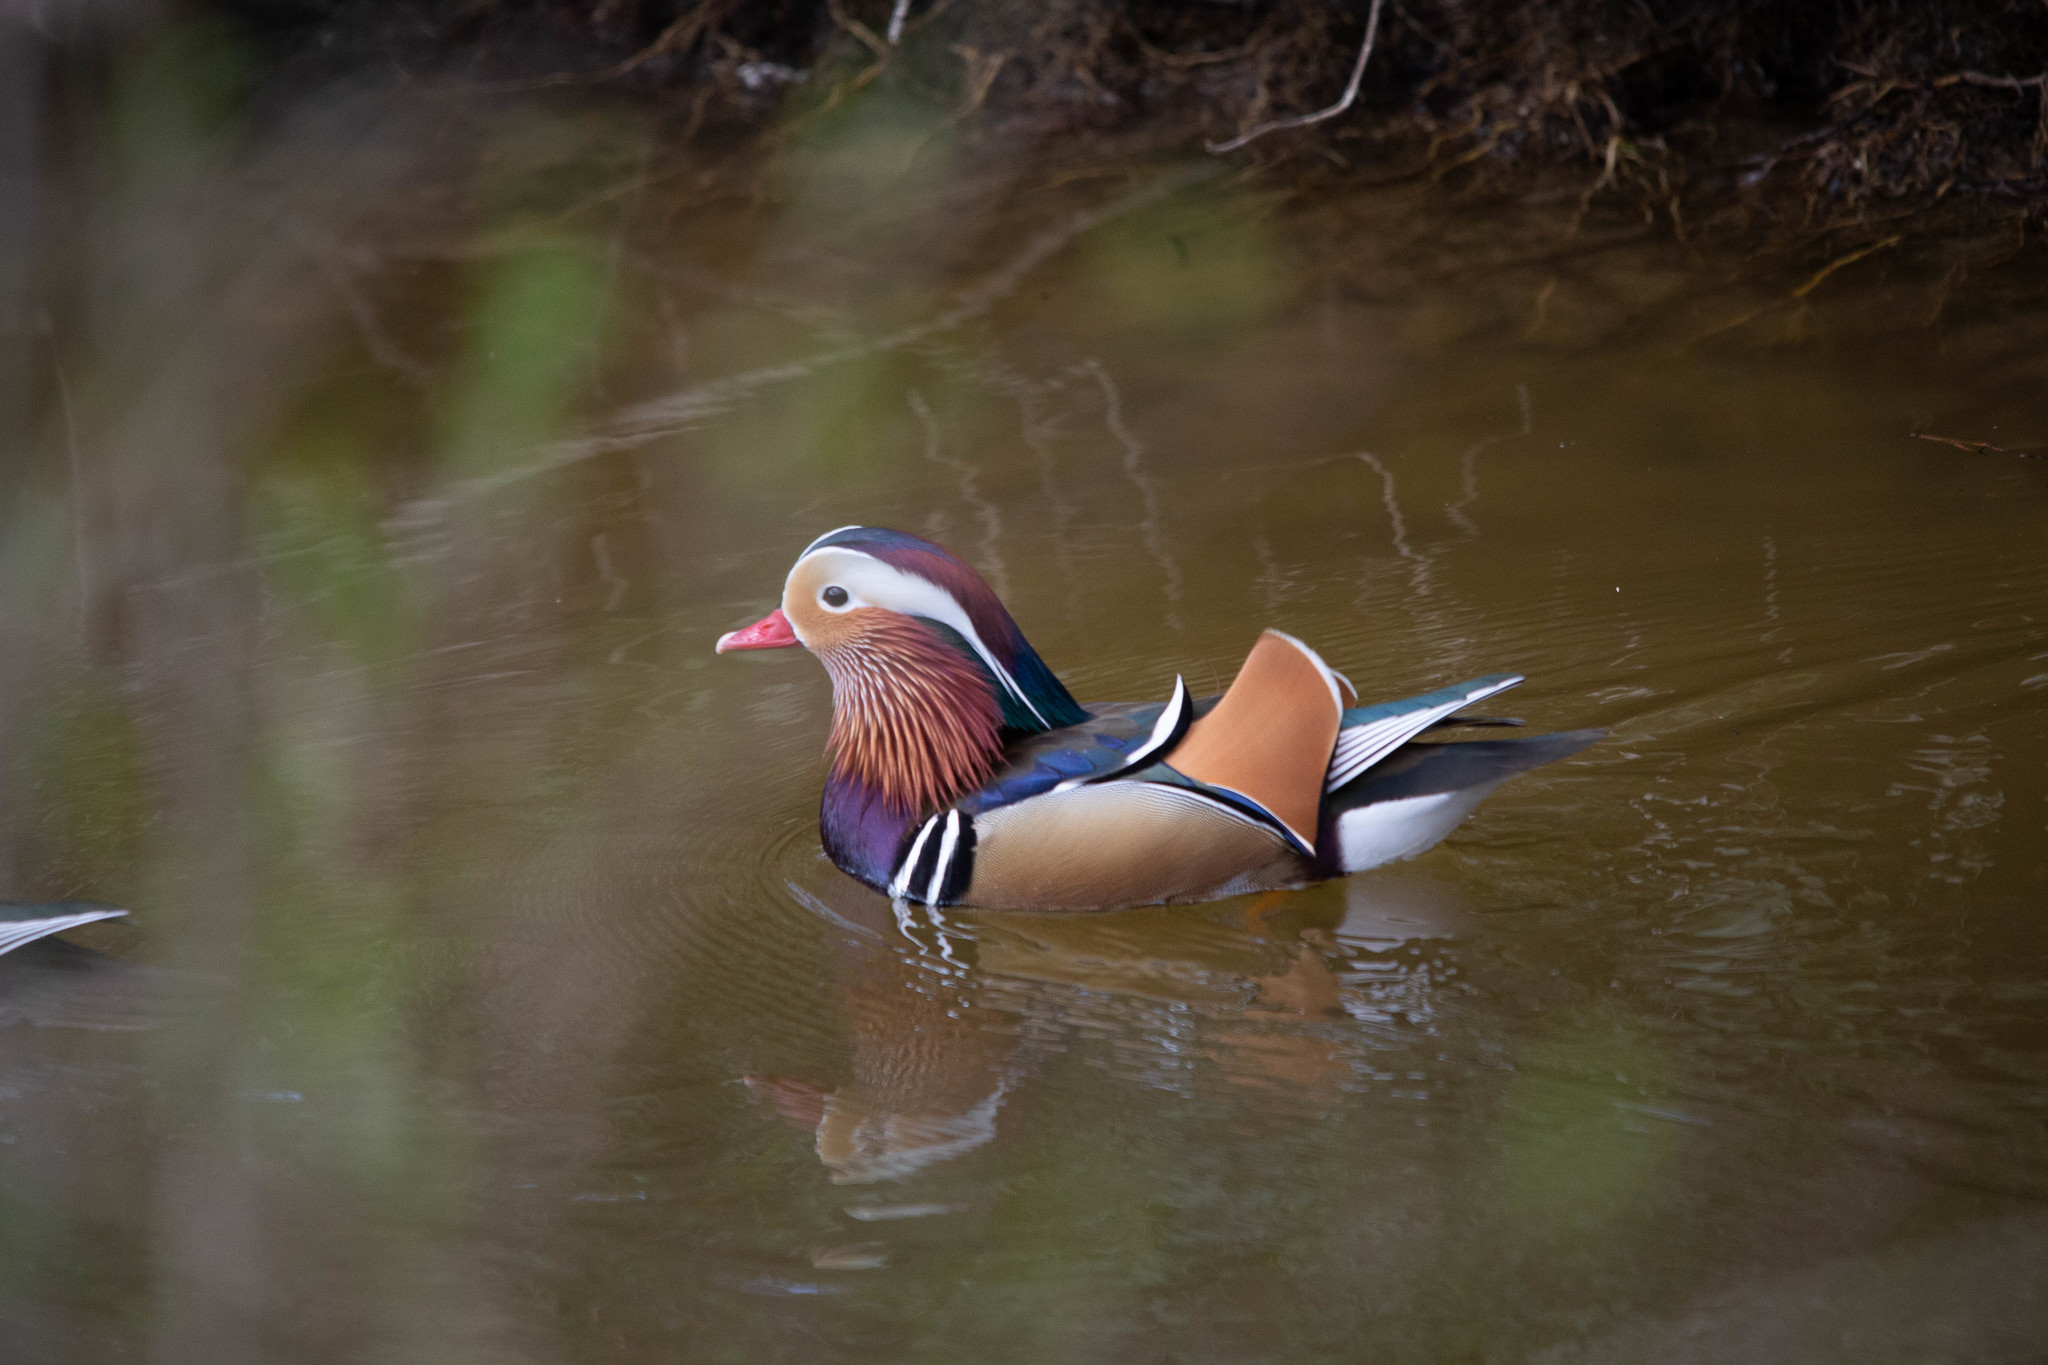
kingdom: Animalia
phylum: Chordata
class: Aves
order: Anseriformes
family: Anatidae
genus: Aix
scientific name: Aix galericulata
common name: Mandarin duck
